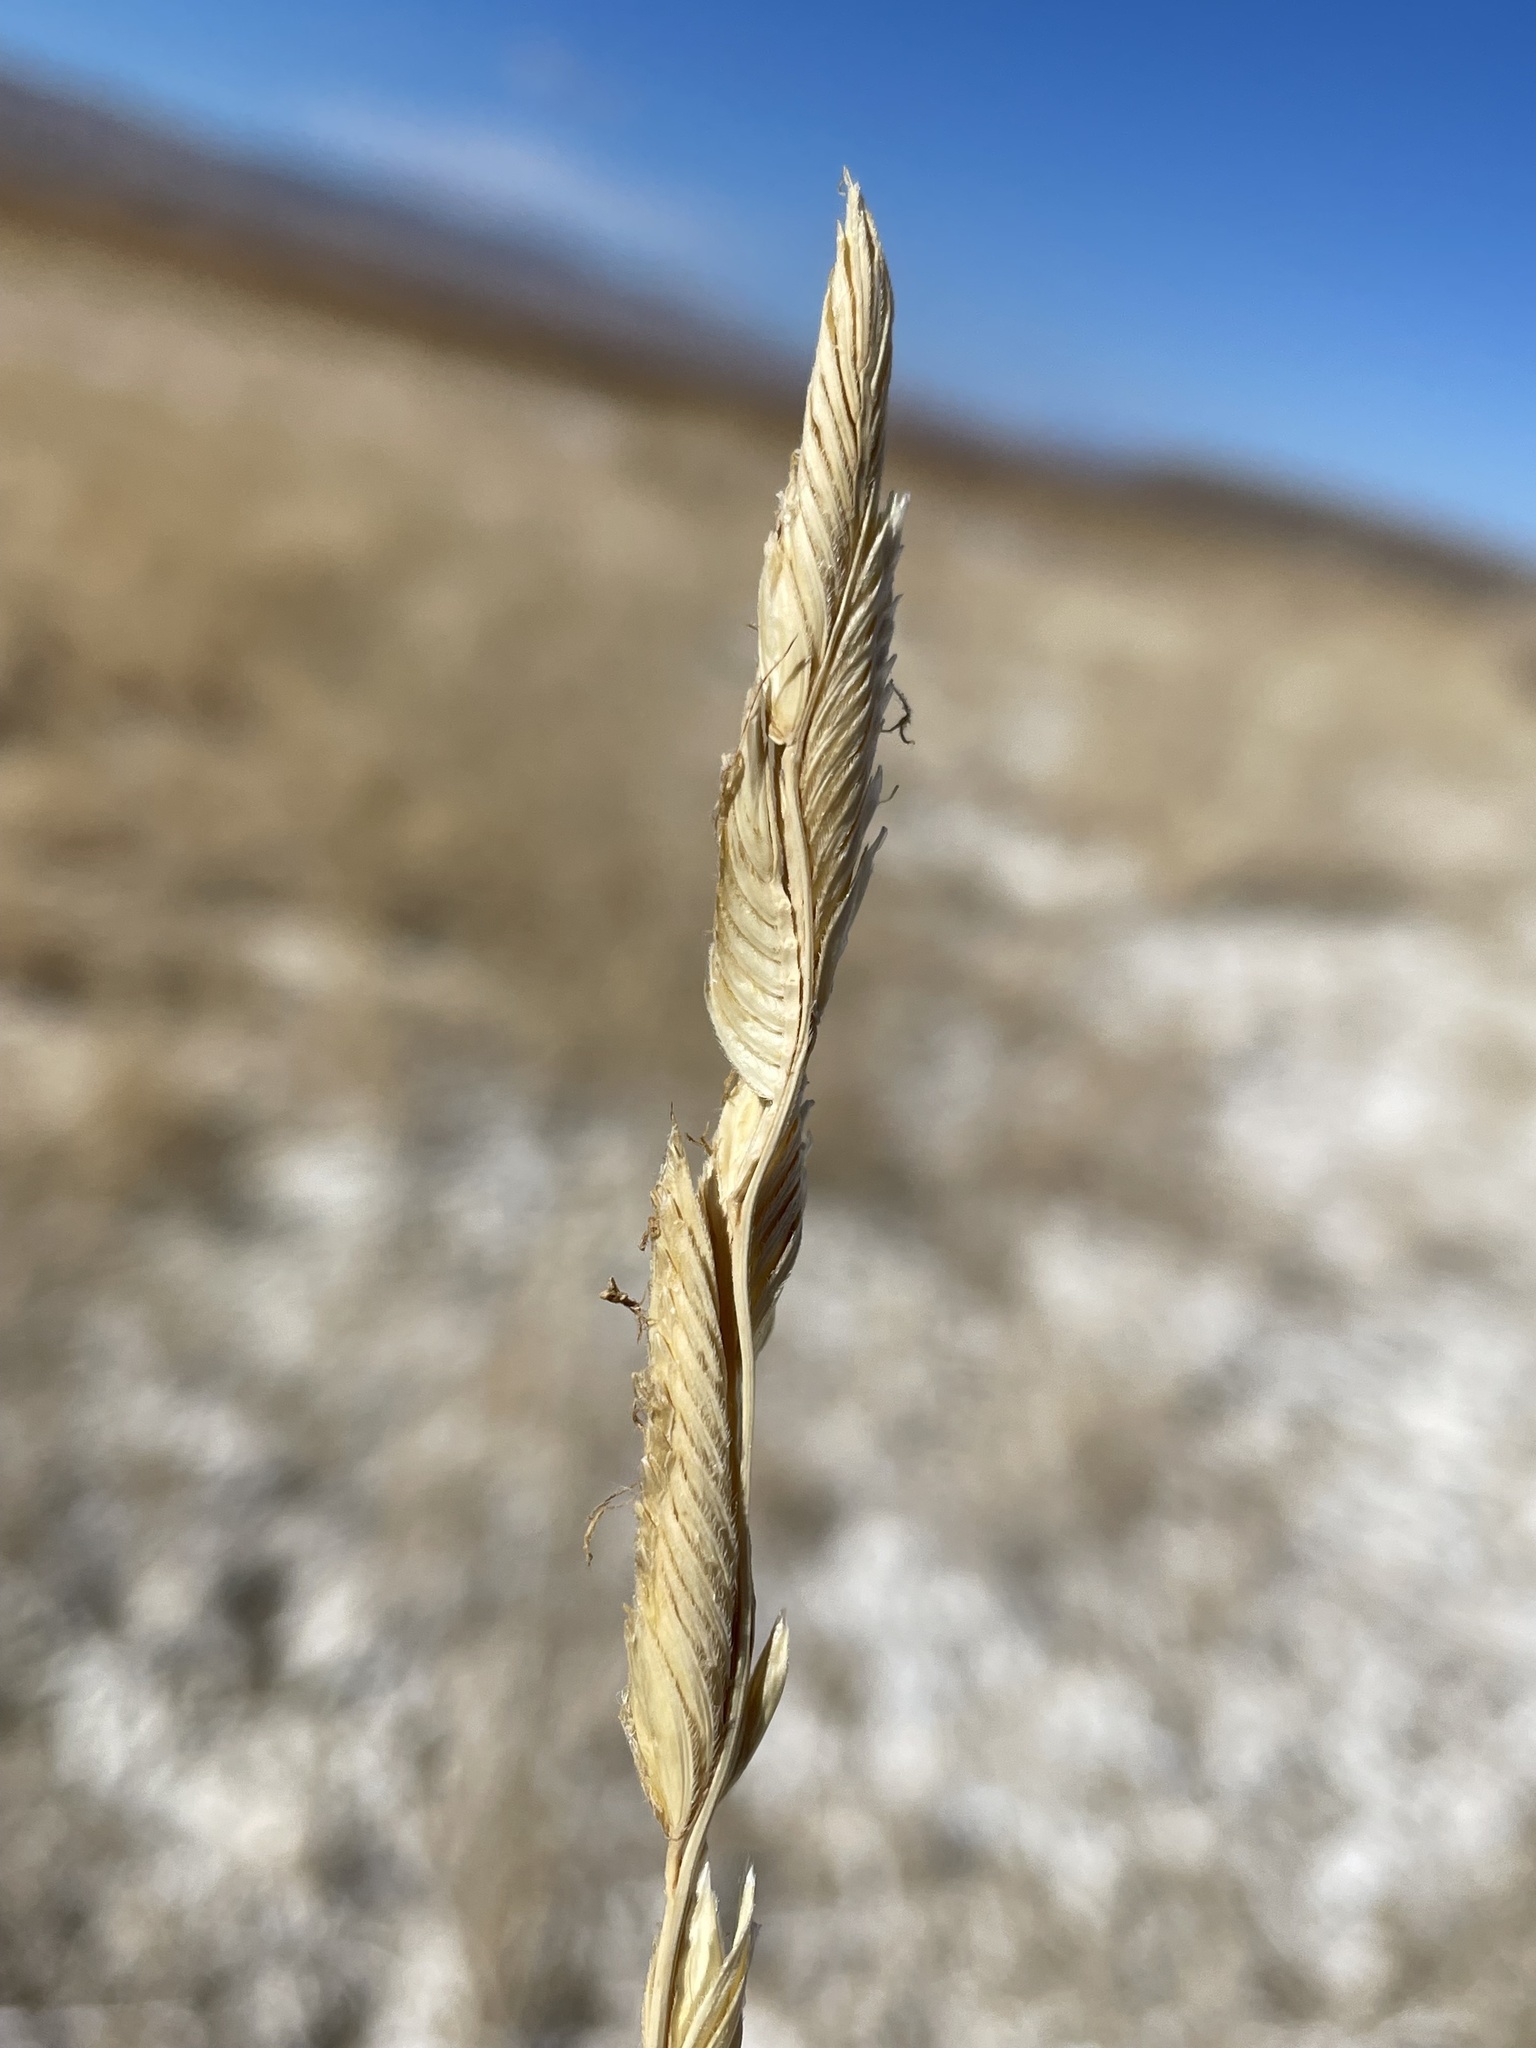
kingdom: Plantae
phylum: Tracheophyta
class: Liliopsida
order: Poales
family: Poaceae
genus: Sporobolus
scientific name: Sporobolus hookerianus
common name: Alkali cordgrass
